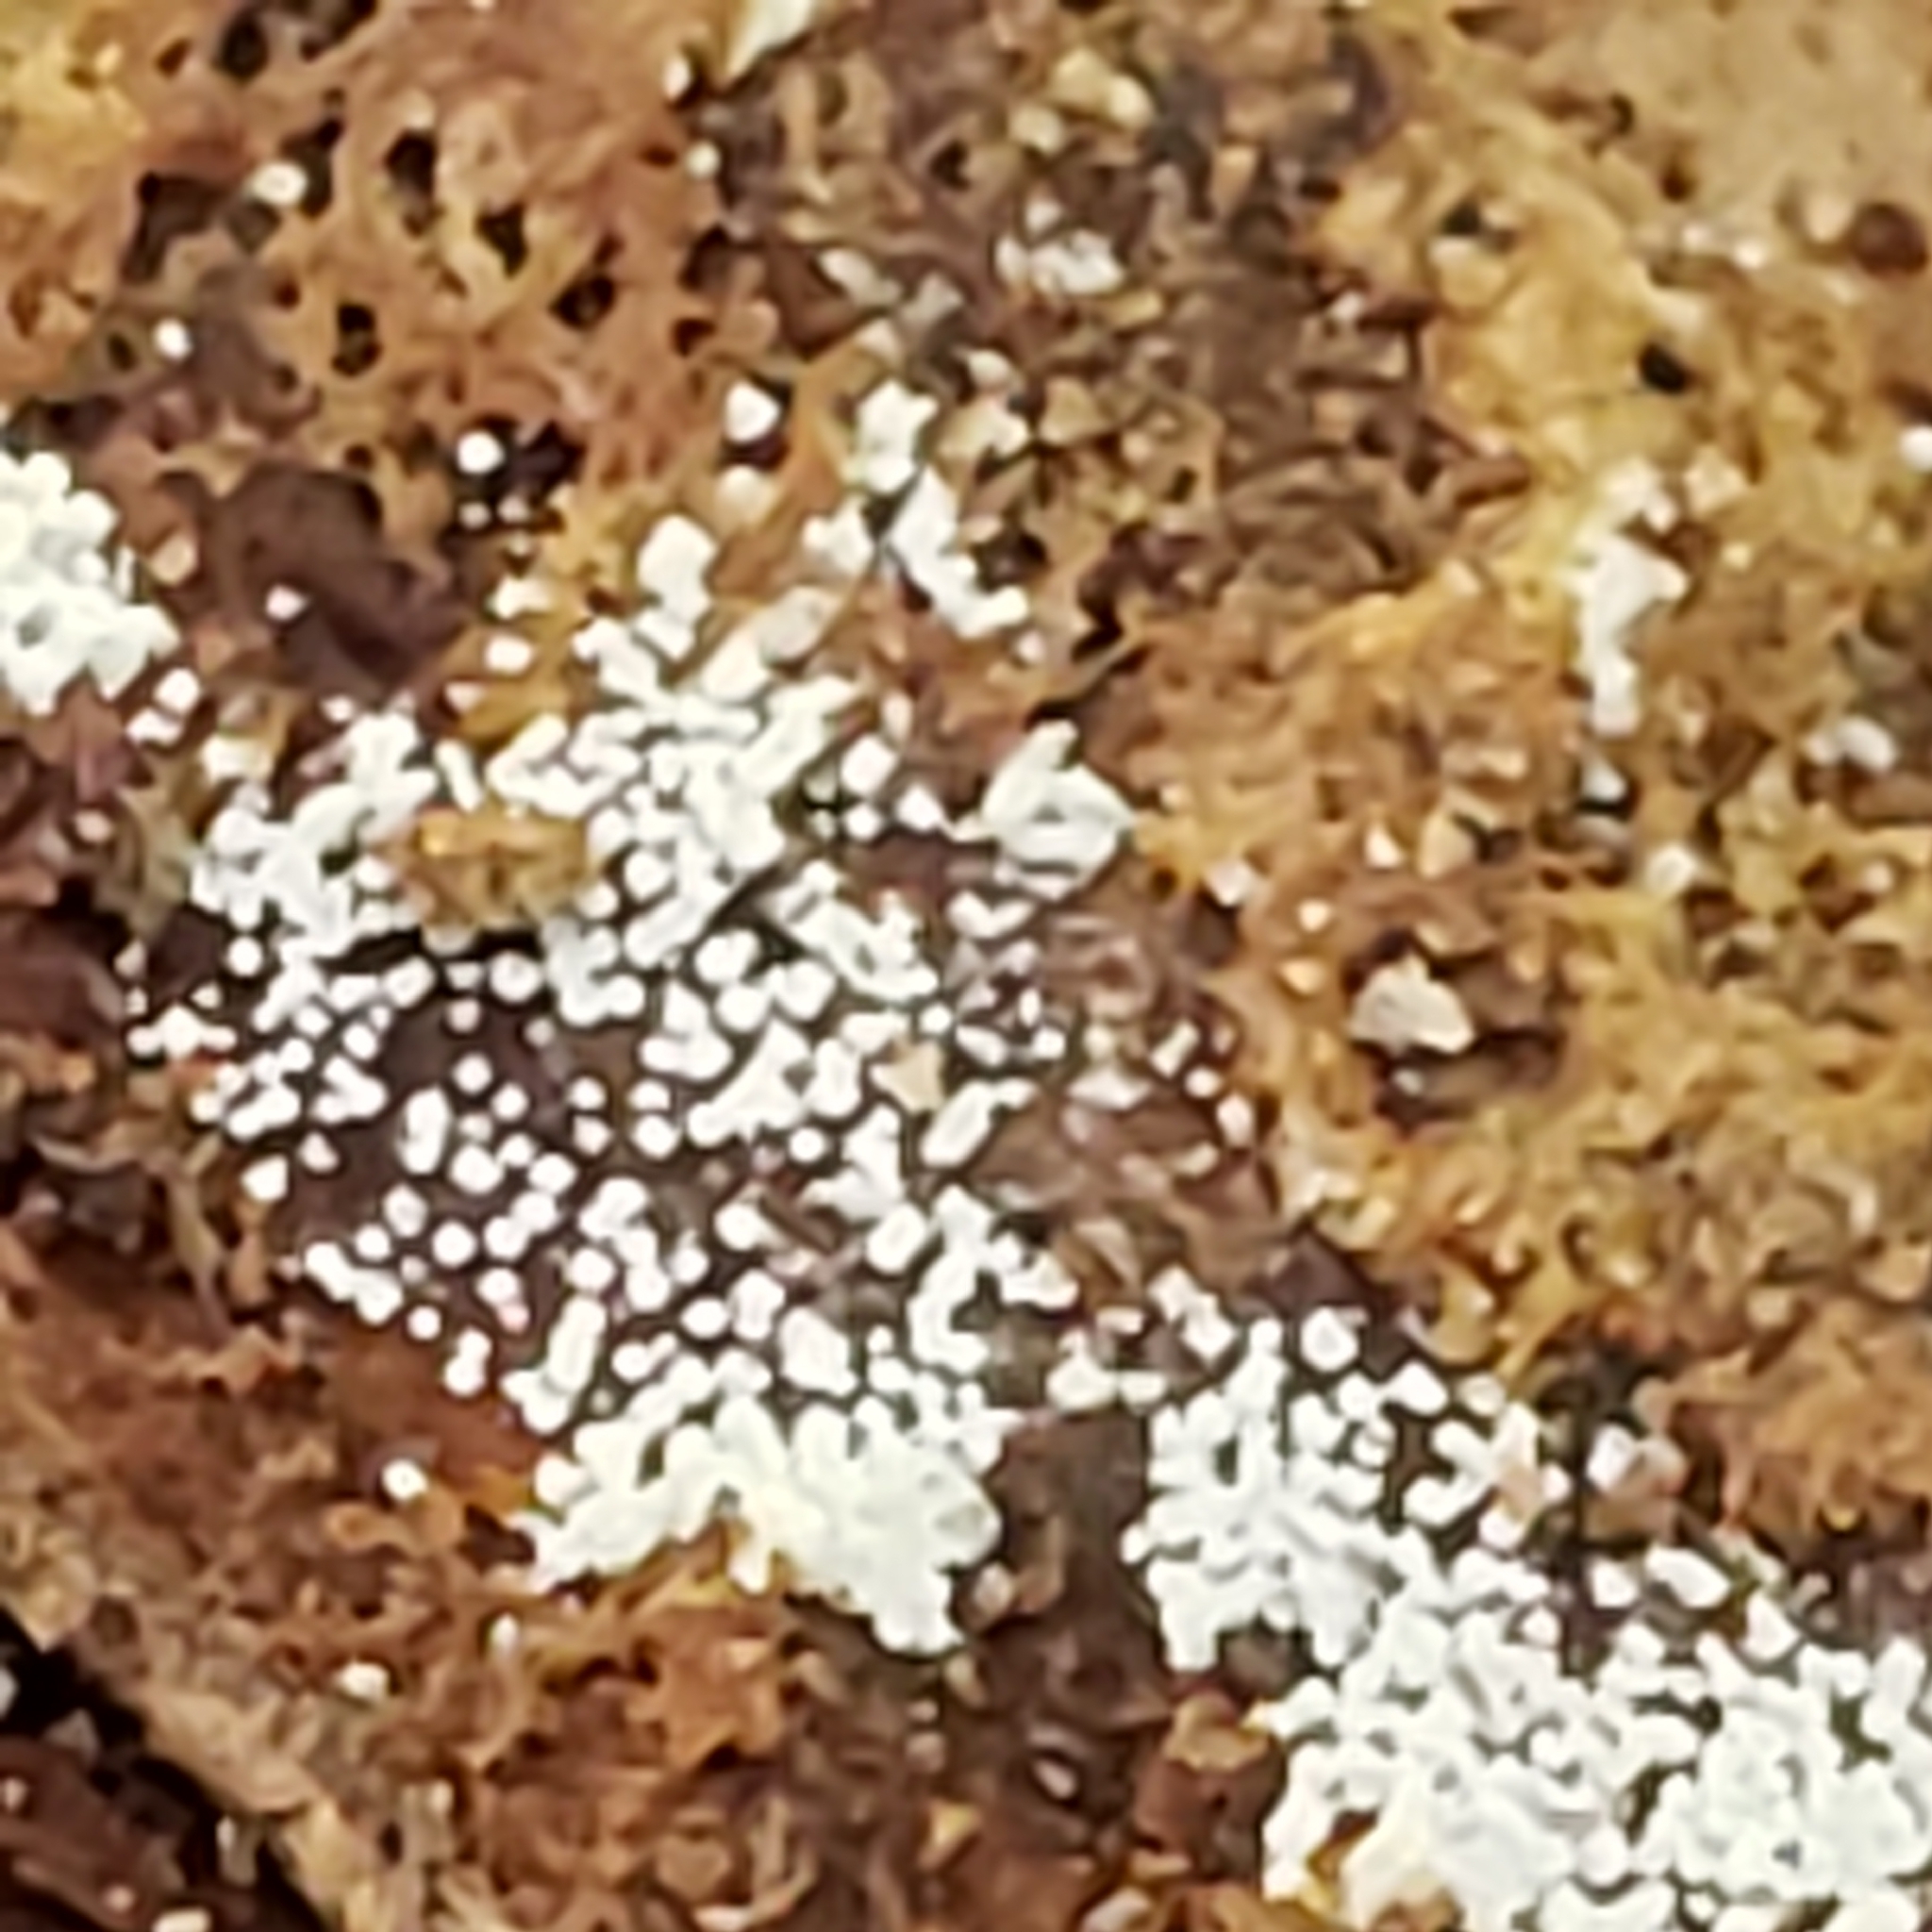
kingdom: Fungi
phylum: Basidiomycota
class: Agaricomycetes
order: Agaricales
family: Marasmiaceae
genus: Henningsomyces
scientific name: Henningsomyces candidus
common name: White tubelet
